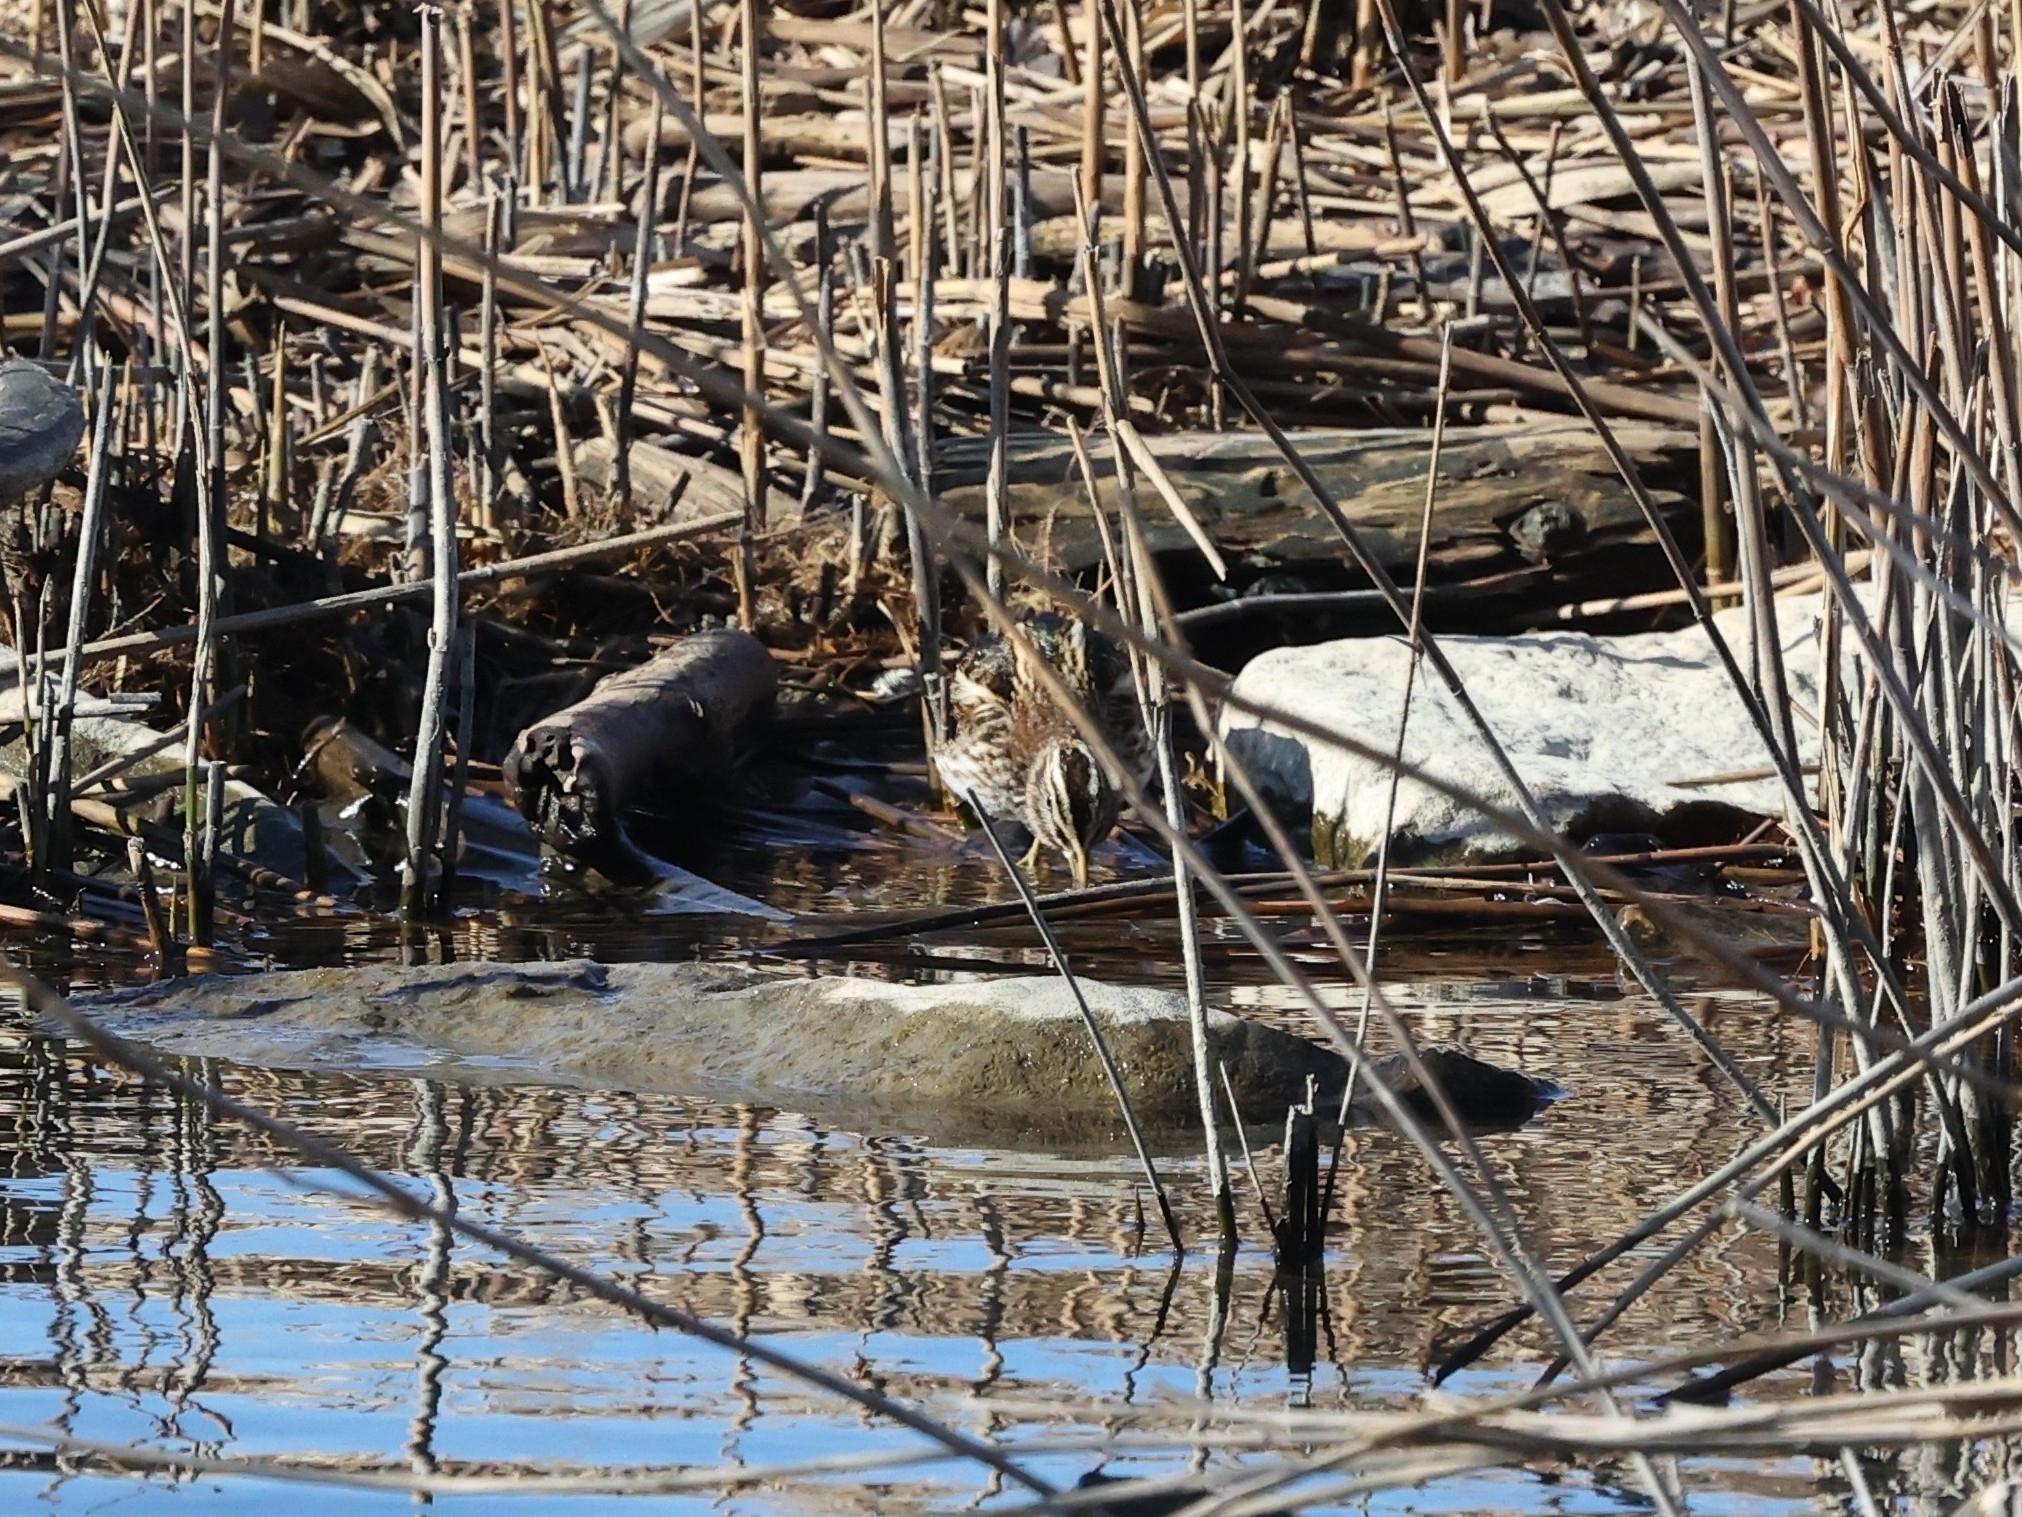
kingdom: Animalia
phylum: Chordata
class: Aves
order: Charadriiformes
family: Scolopacidae
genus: Lymnocryptes
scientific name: Lymnocryptes minimus
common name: Jack snipe
